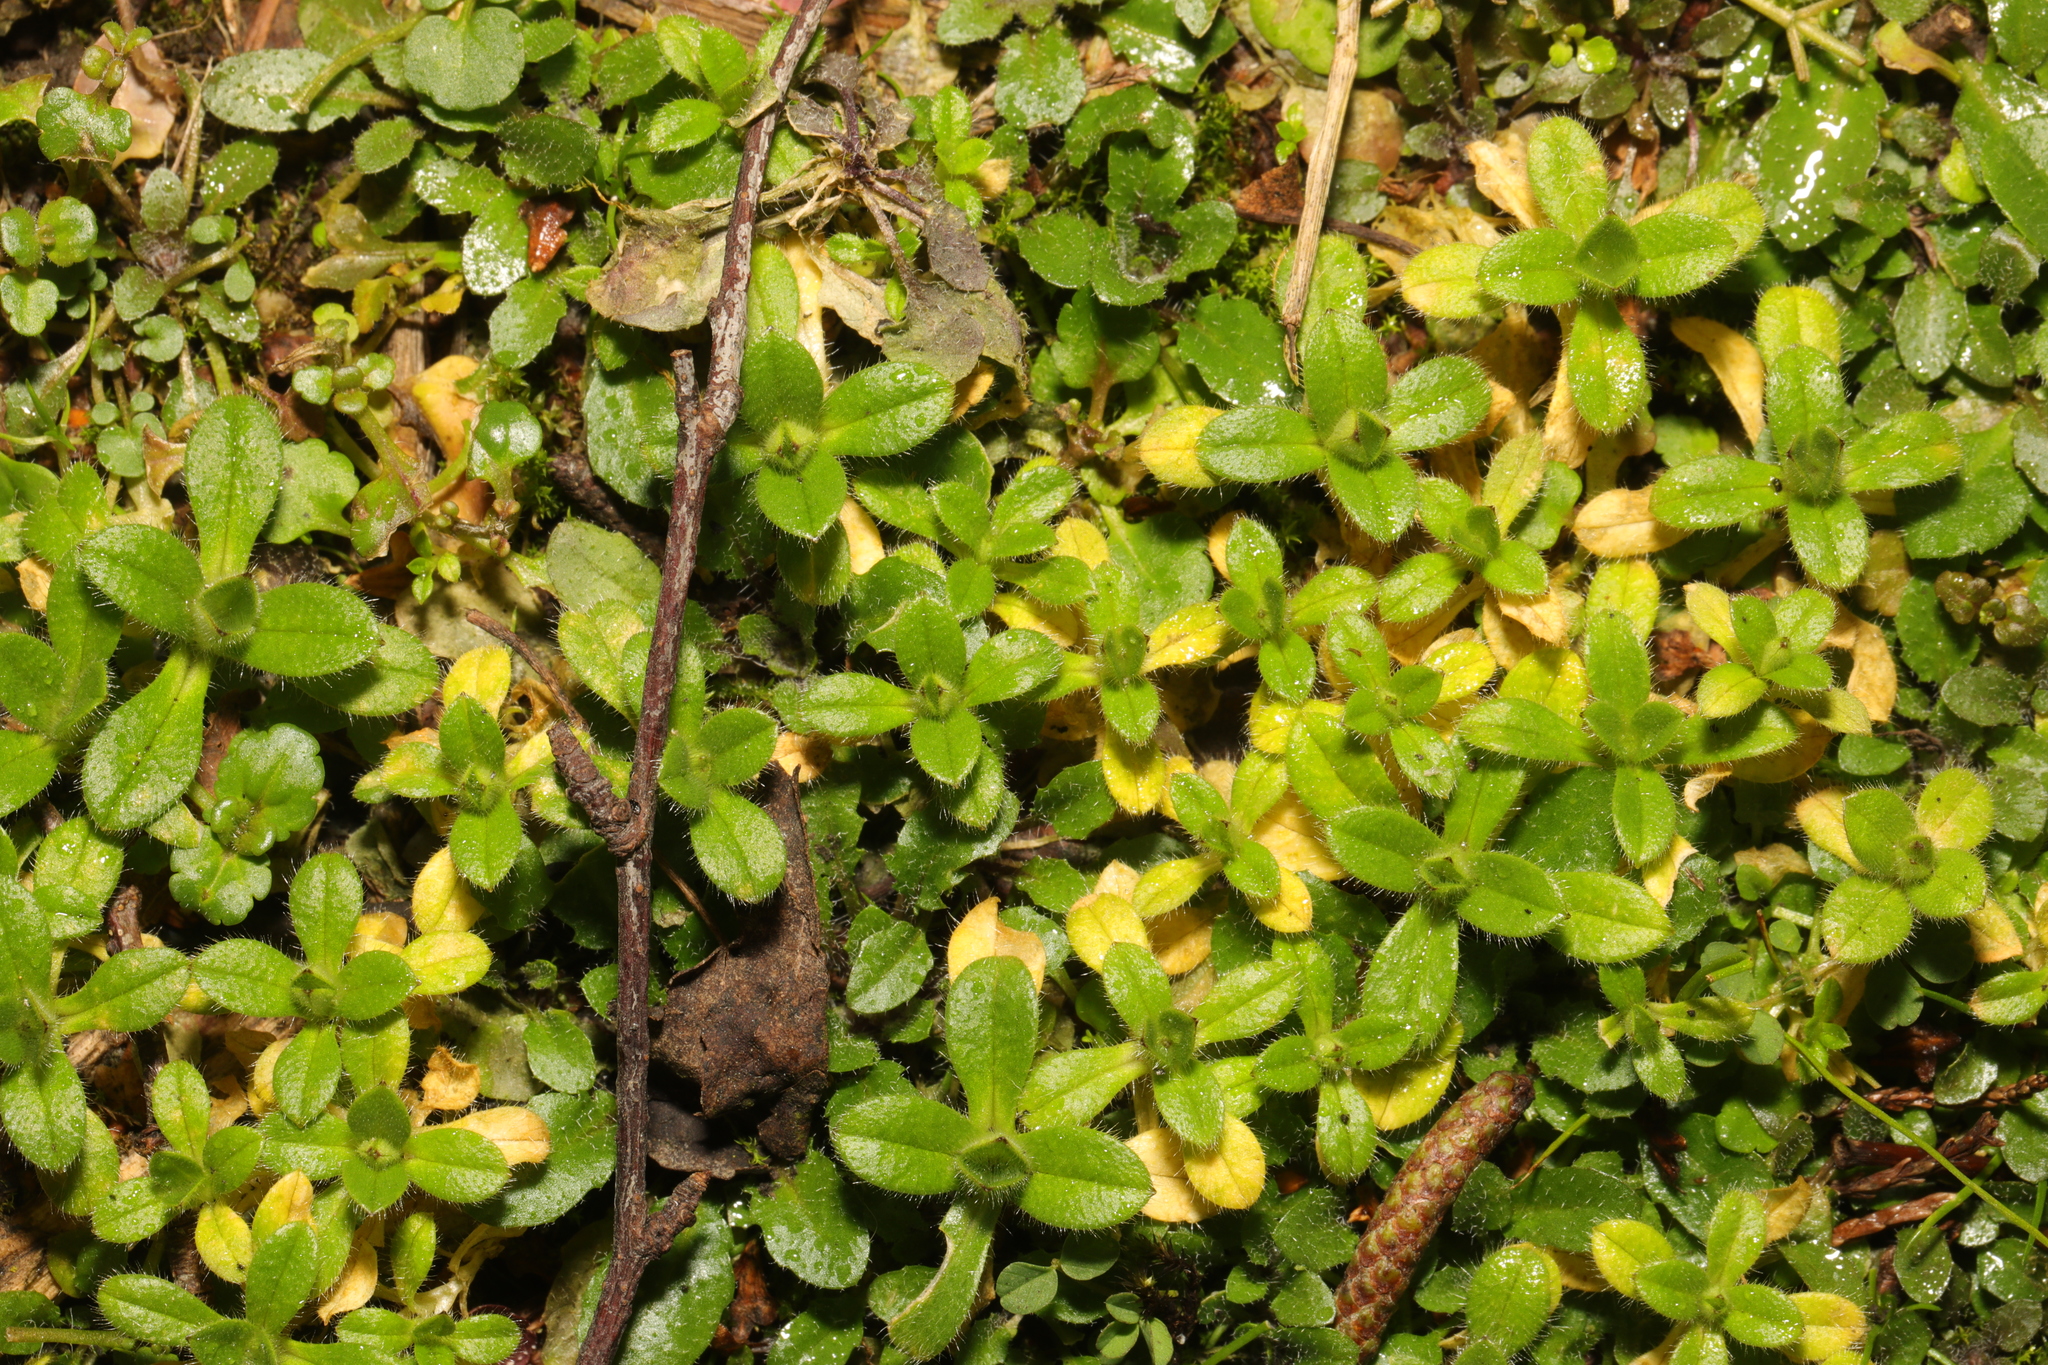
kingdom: Plantae
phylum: Tracheophyta
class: Magnoliopsida
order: Caryophyllales
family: Caryophyllaceae
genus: Cerastium
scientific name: Cerastium fontanum
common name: Common mouse-ear
